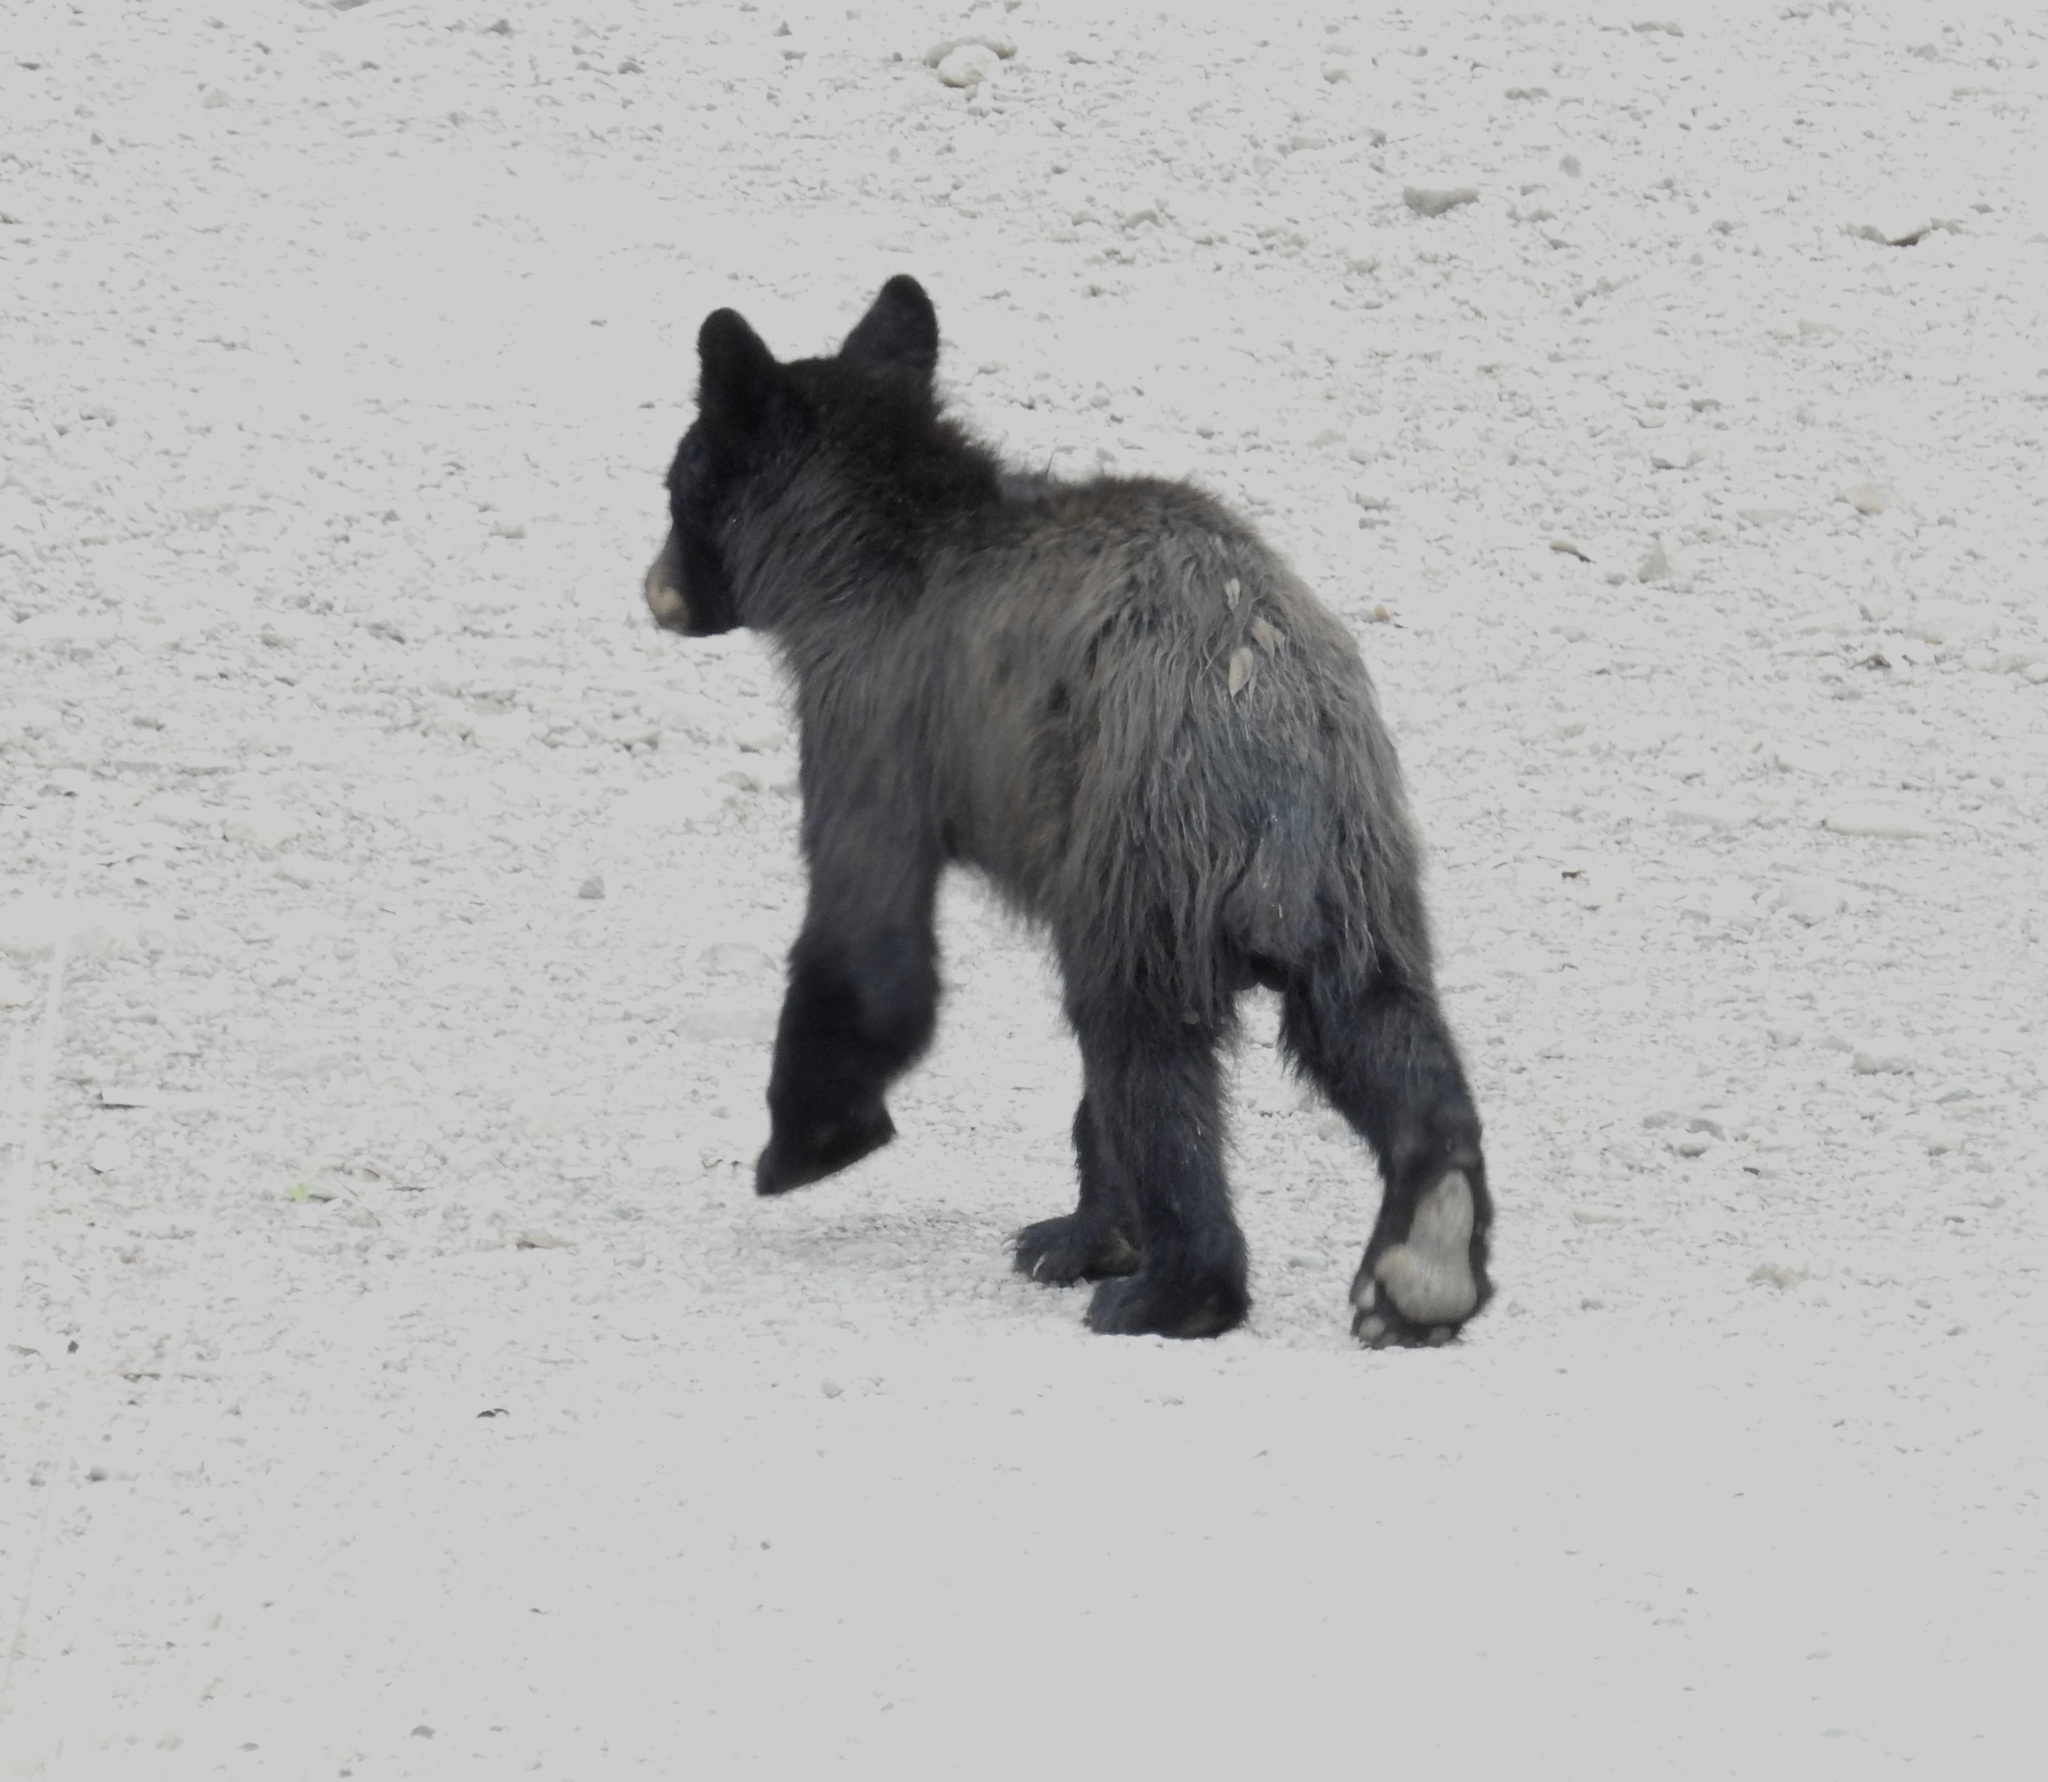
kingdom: Animalia
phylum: Chordata
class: Mammalia
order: Carnivora
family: Ursidae
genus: Ursus
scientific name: Ursus americanus
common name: American black bear
